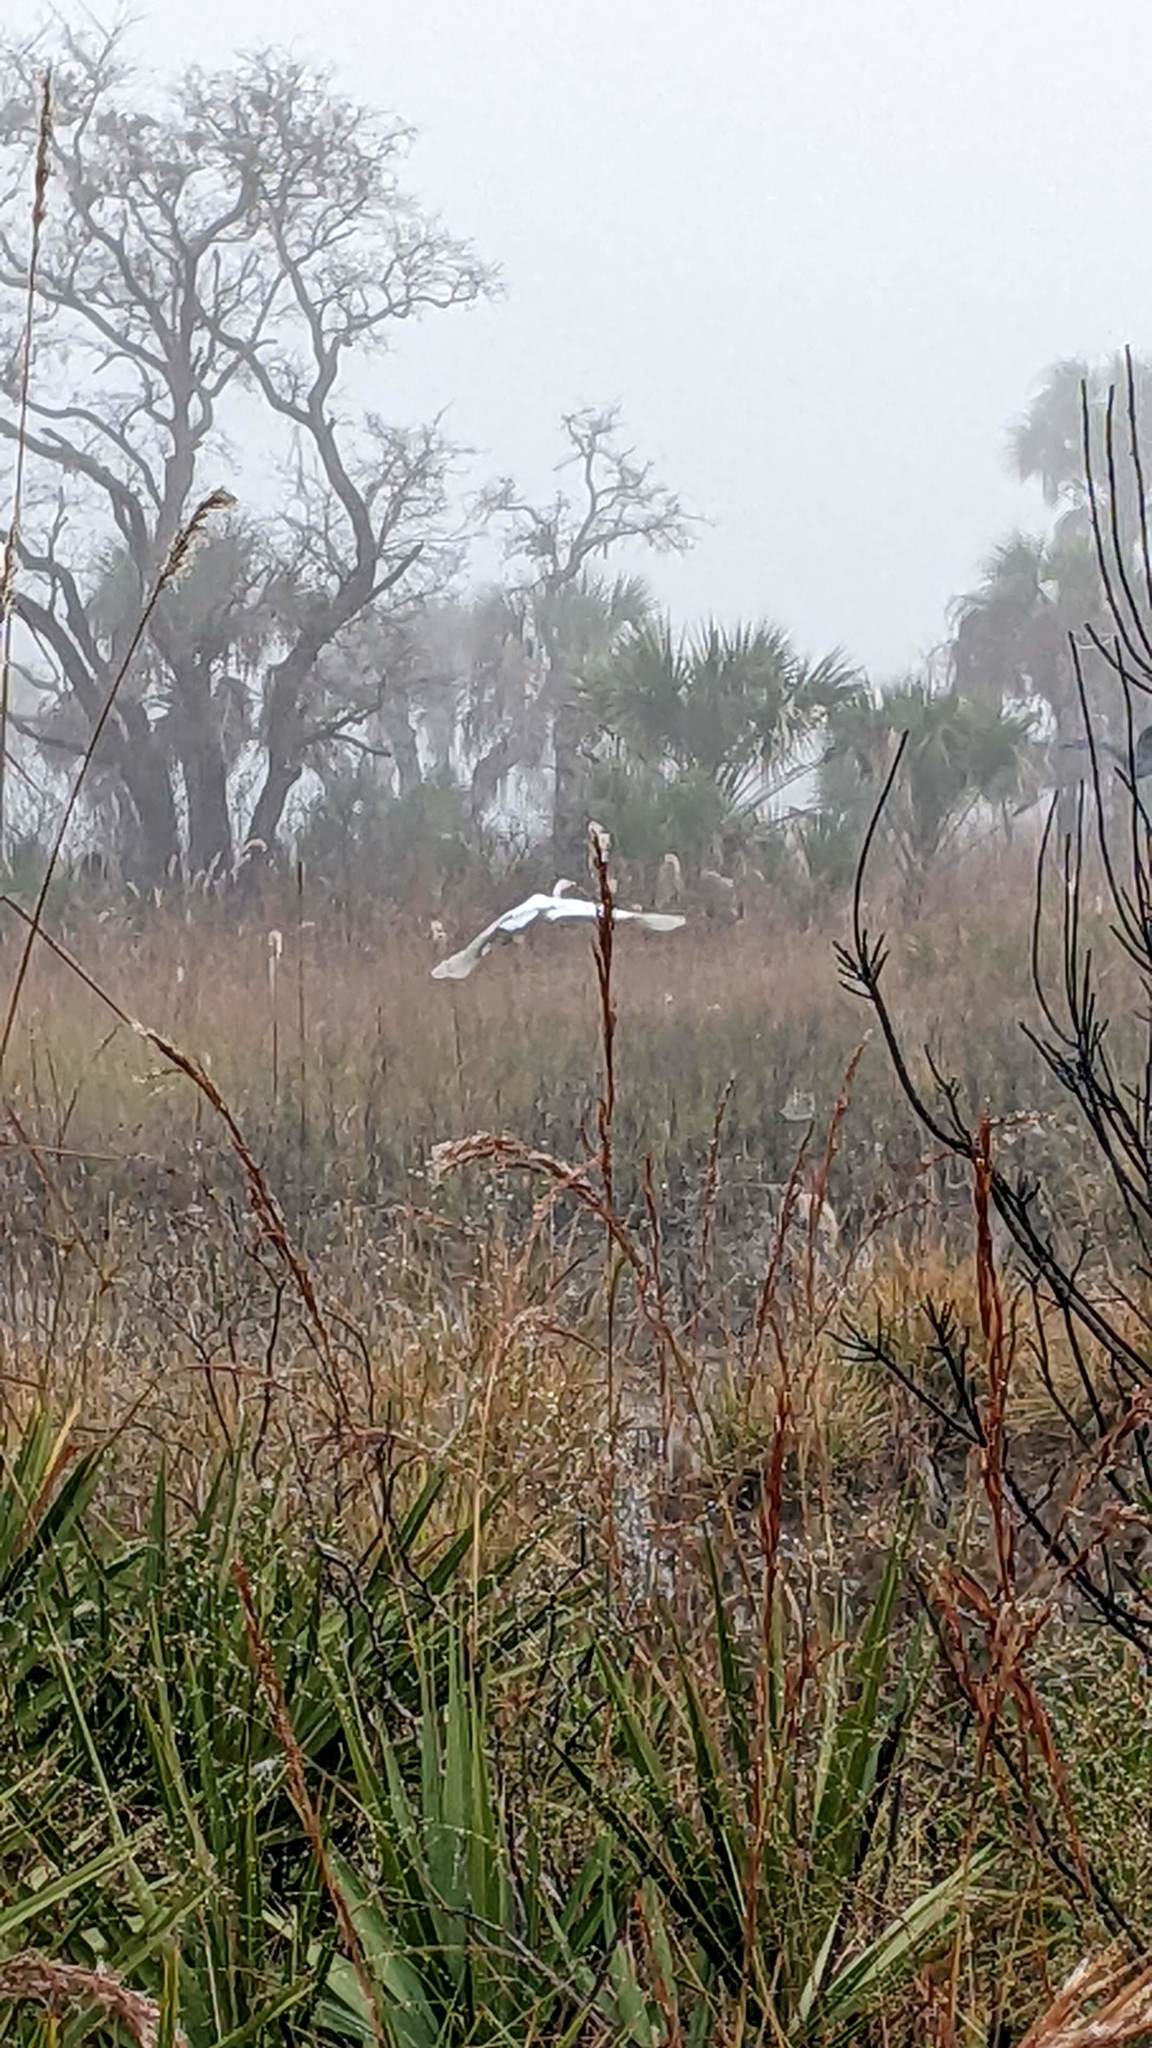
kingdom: Animalia
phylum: Chordata
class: Aves
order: Pelecaniformes
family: Ardeidae
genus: Ardea
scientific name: Ardea alba
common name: Great egret
